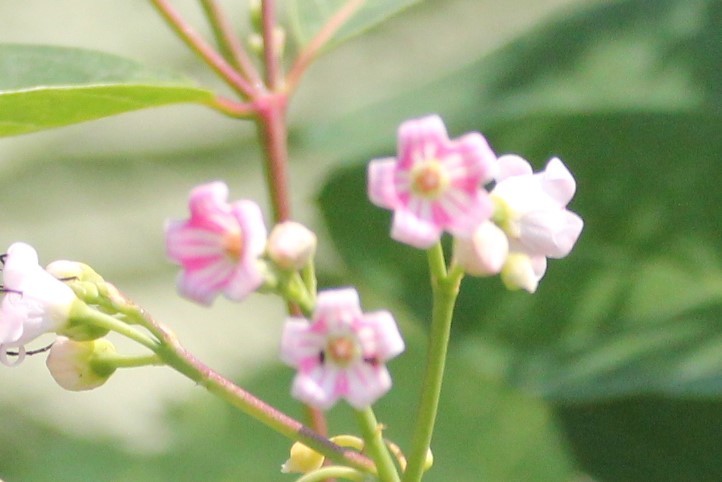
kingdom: Plantae
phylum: Tracheophyta
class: Magnoliopsida
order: Gentianales
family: Apocynaceae
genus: Apocynum
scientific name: Apocynum androsaemifolium
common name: Spreading dogbane
